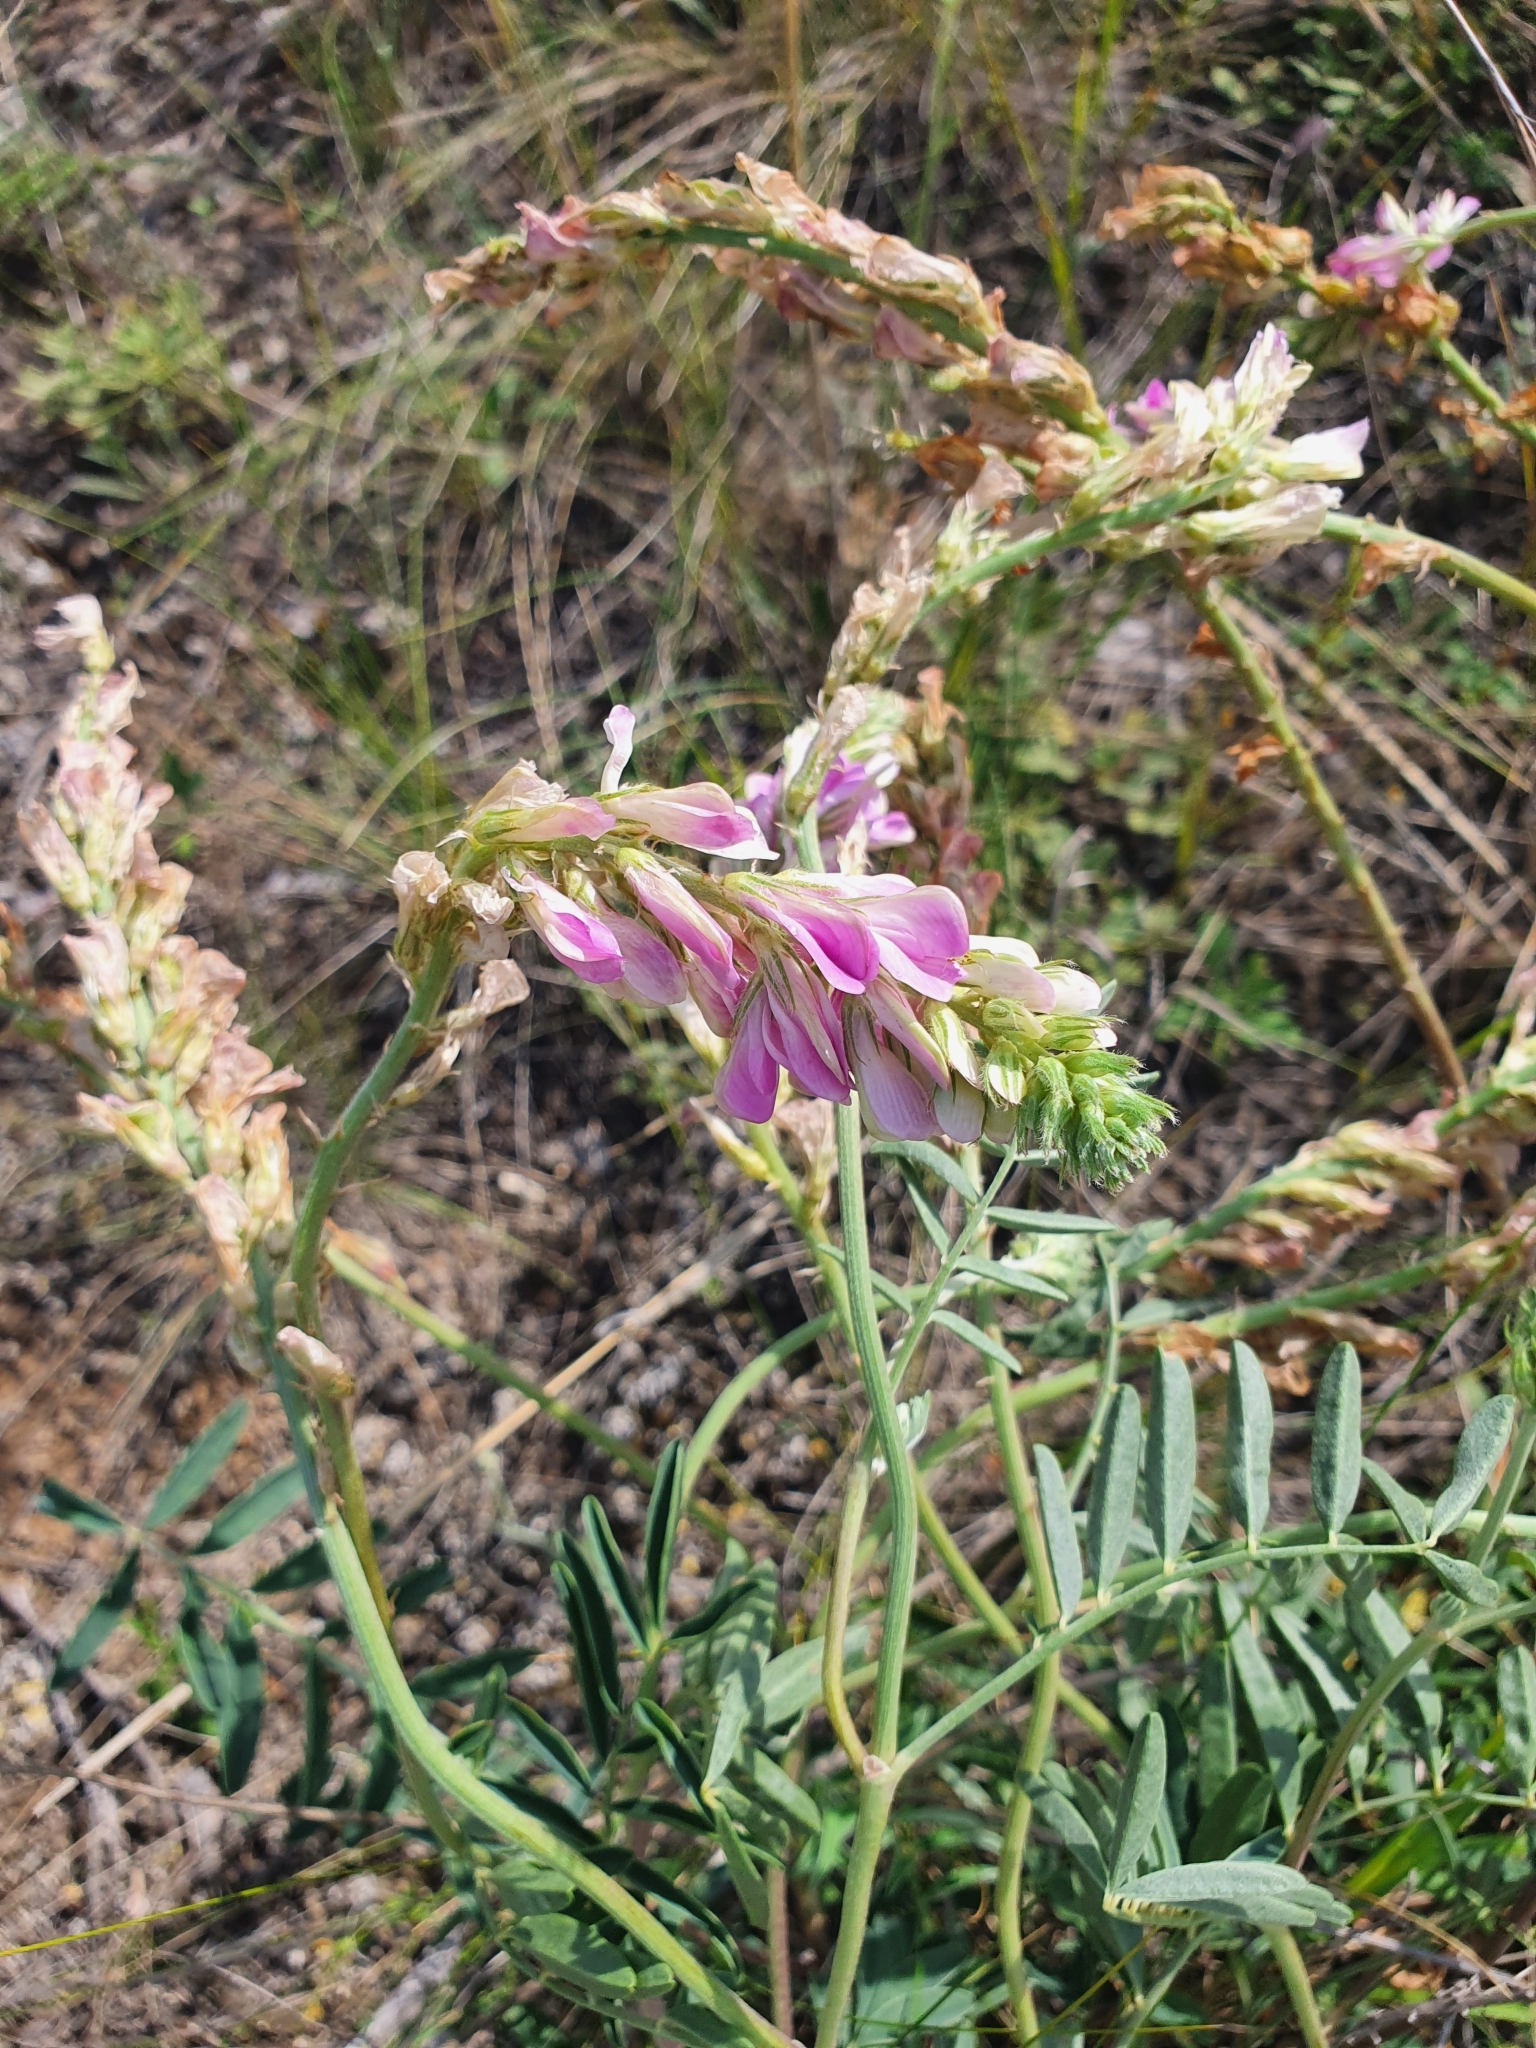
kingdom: Plantae
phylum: Tracheophyta
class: Magnoliopsida
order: Fabales
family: Fabaceae
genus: Hedysarum
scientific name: Hedysarum gmelinii
